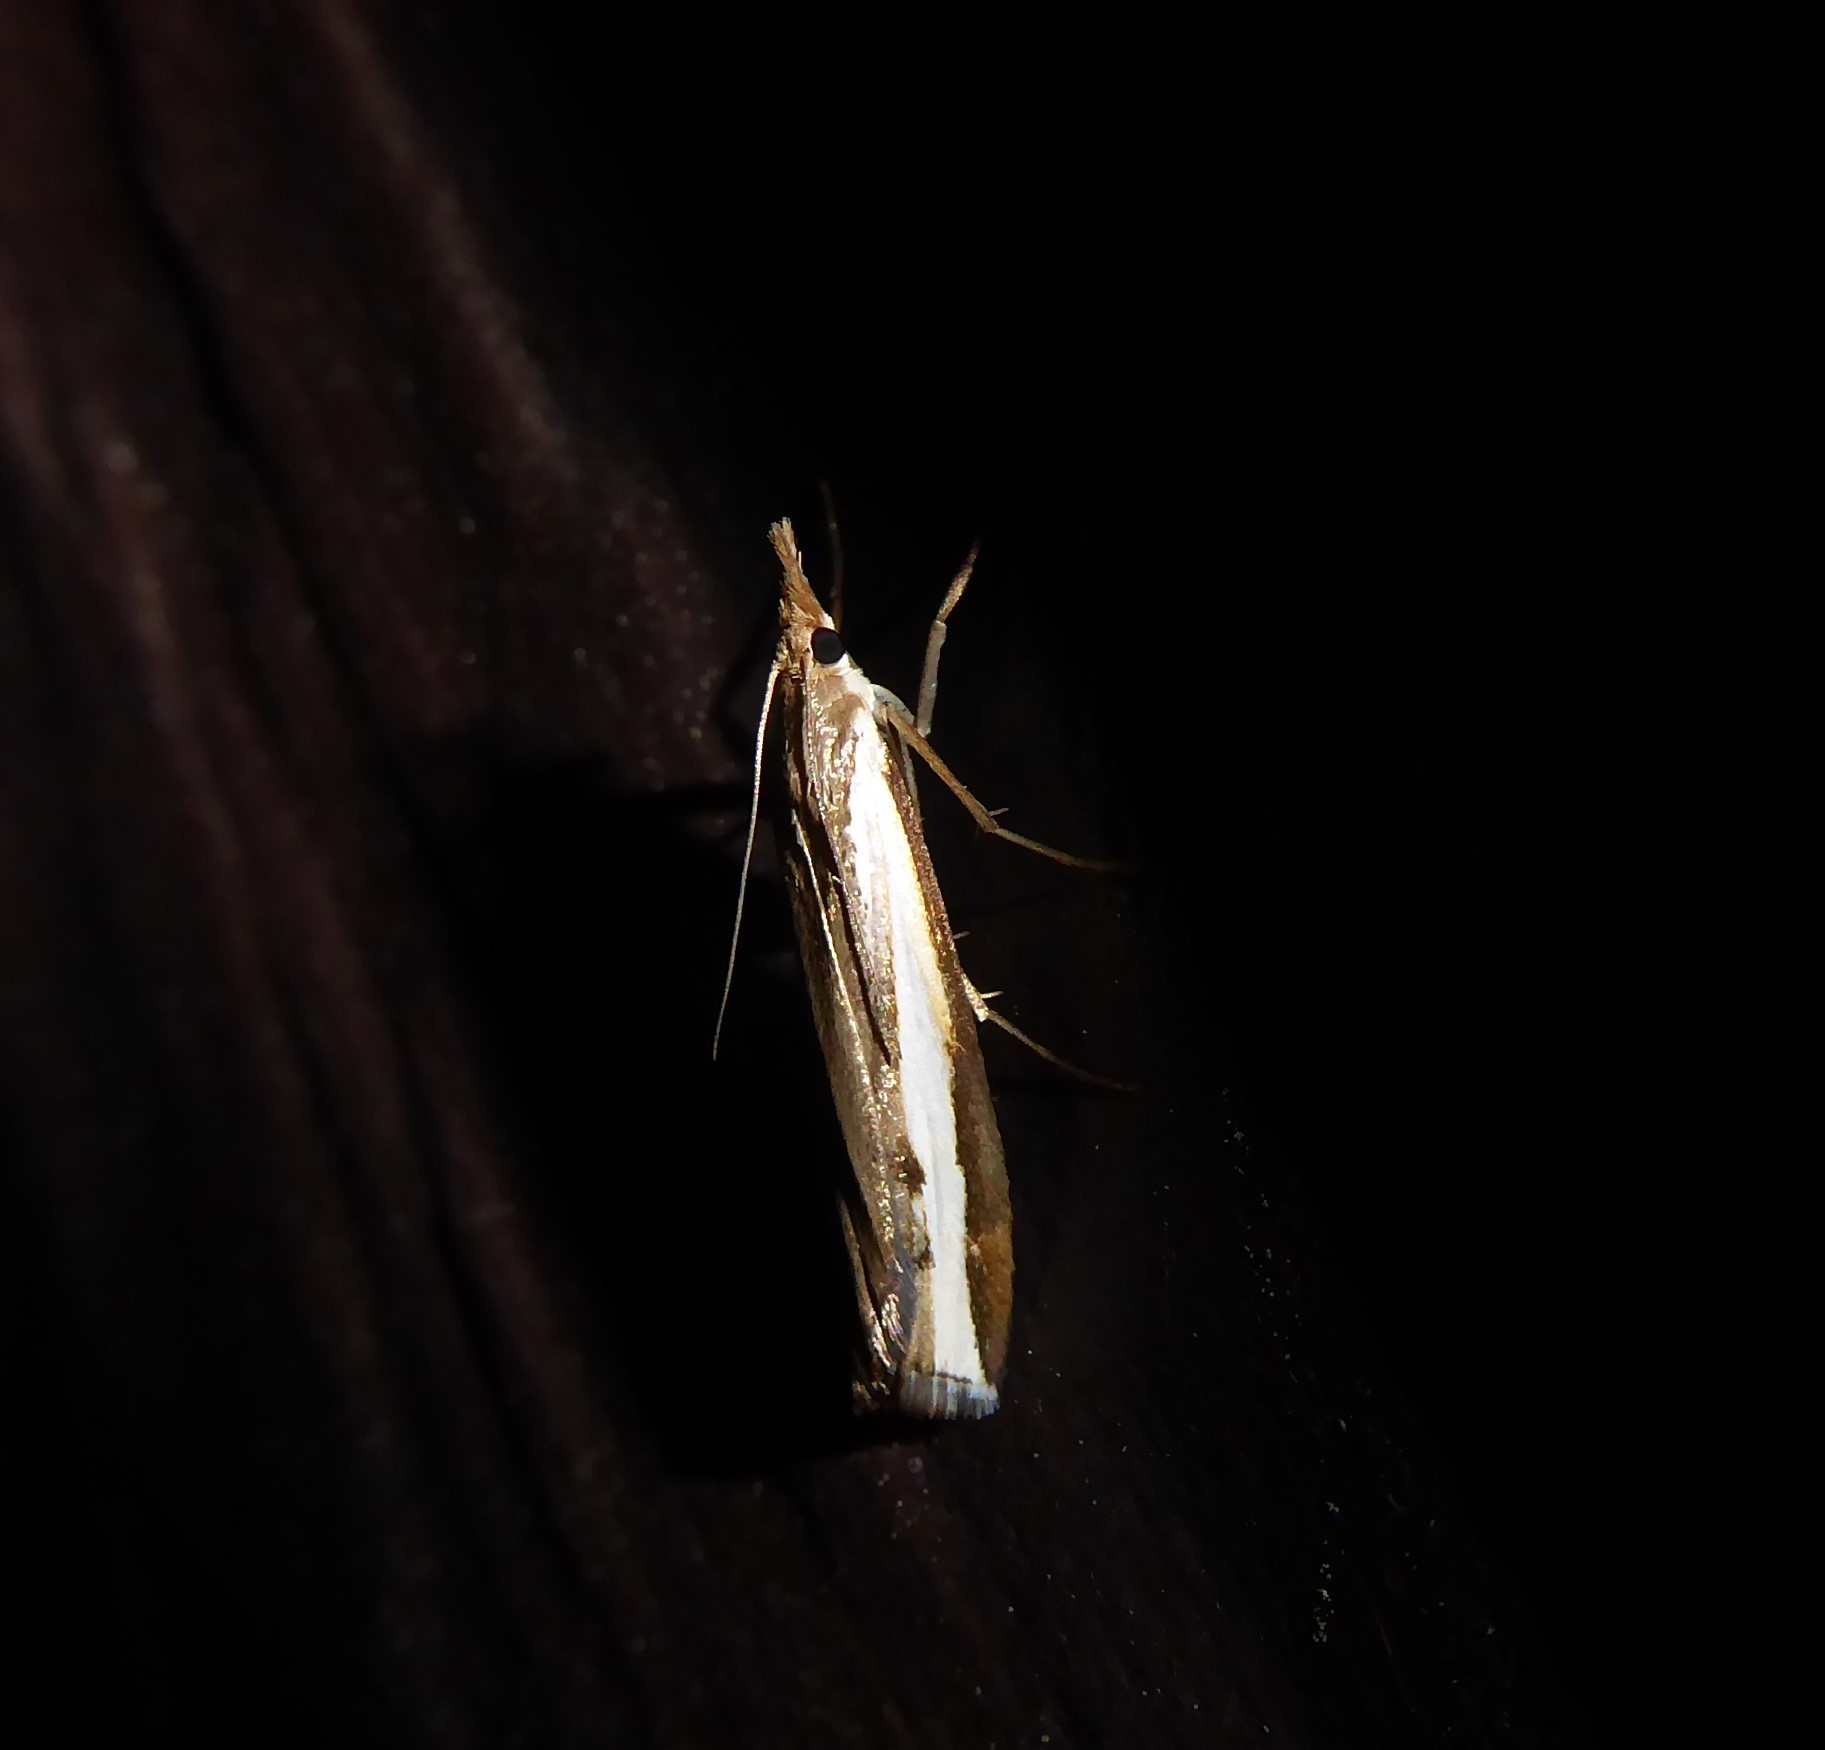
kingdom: Animalia
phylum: Arthropoda
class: Insecta
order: Lepidoptera
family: Crambidae
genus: Orocrambus
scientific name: Orocrambus flexuosellus
